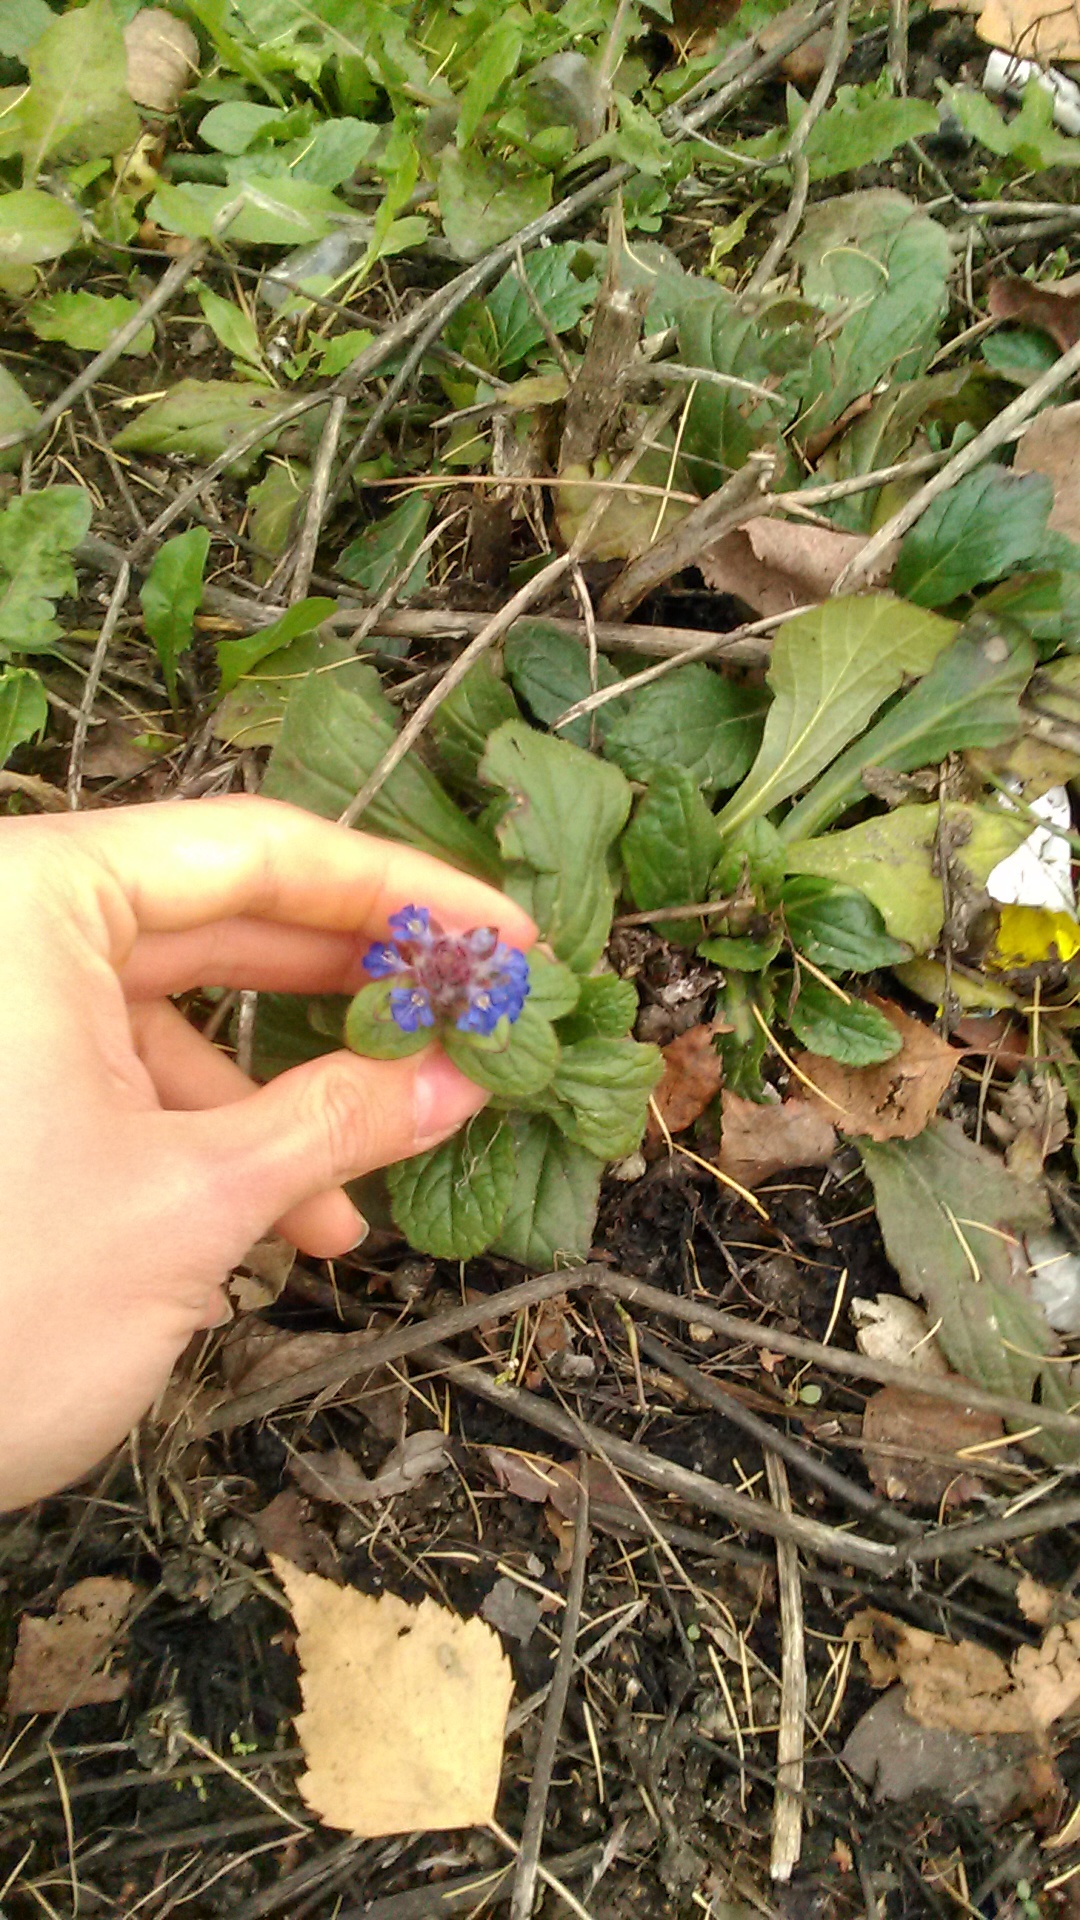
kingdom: Plantae
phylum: Tracheophyta
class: Magnoliopsida
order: Lamiales
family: Lamiaceae
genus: Ajuga
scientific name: Ajuga reptans
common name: Bugle
